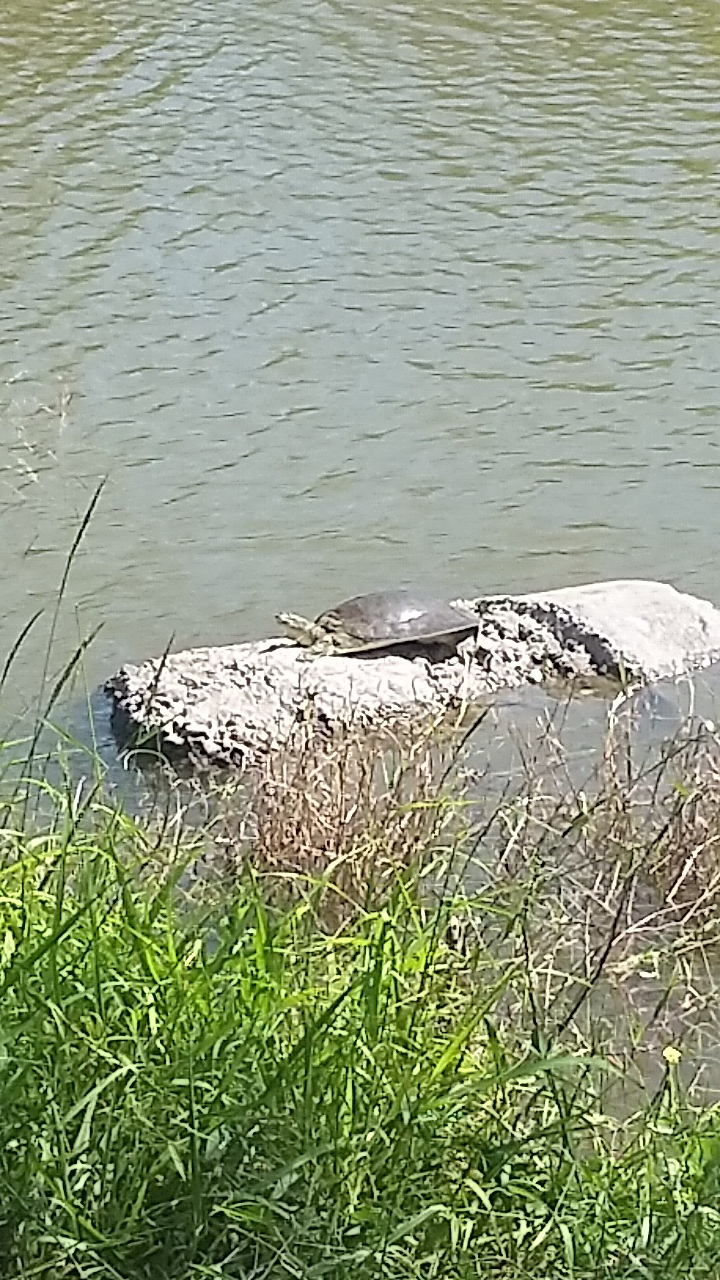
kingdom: Animalia
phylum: Chordata
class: Testudines
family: Trionychidae
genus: Apalone
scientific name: Apalone spinifera
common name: Spiny softshell turtle
